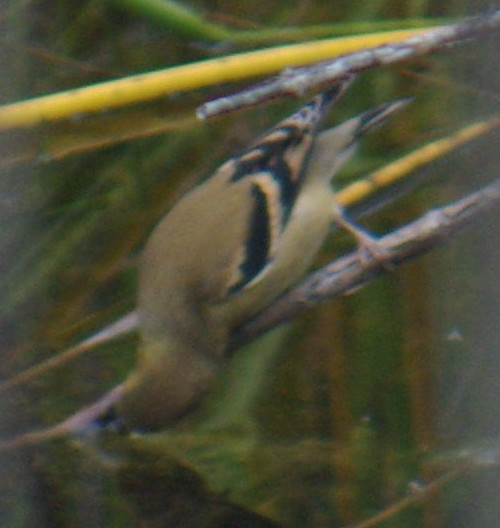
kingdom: Animalia
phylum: Chordata
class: Aves
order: Passeriformes
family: Fringillidae
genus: Spinus
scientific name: Spinus tristis
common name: American goldfinch
